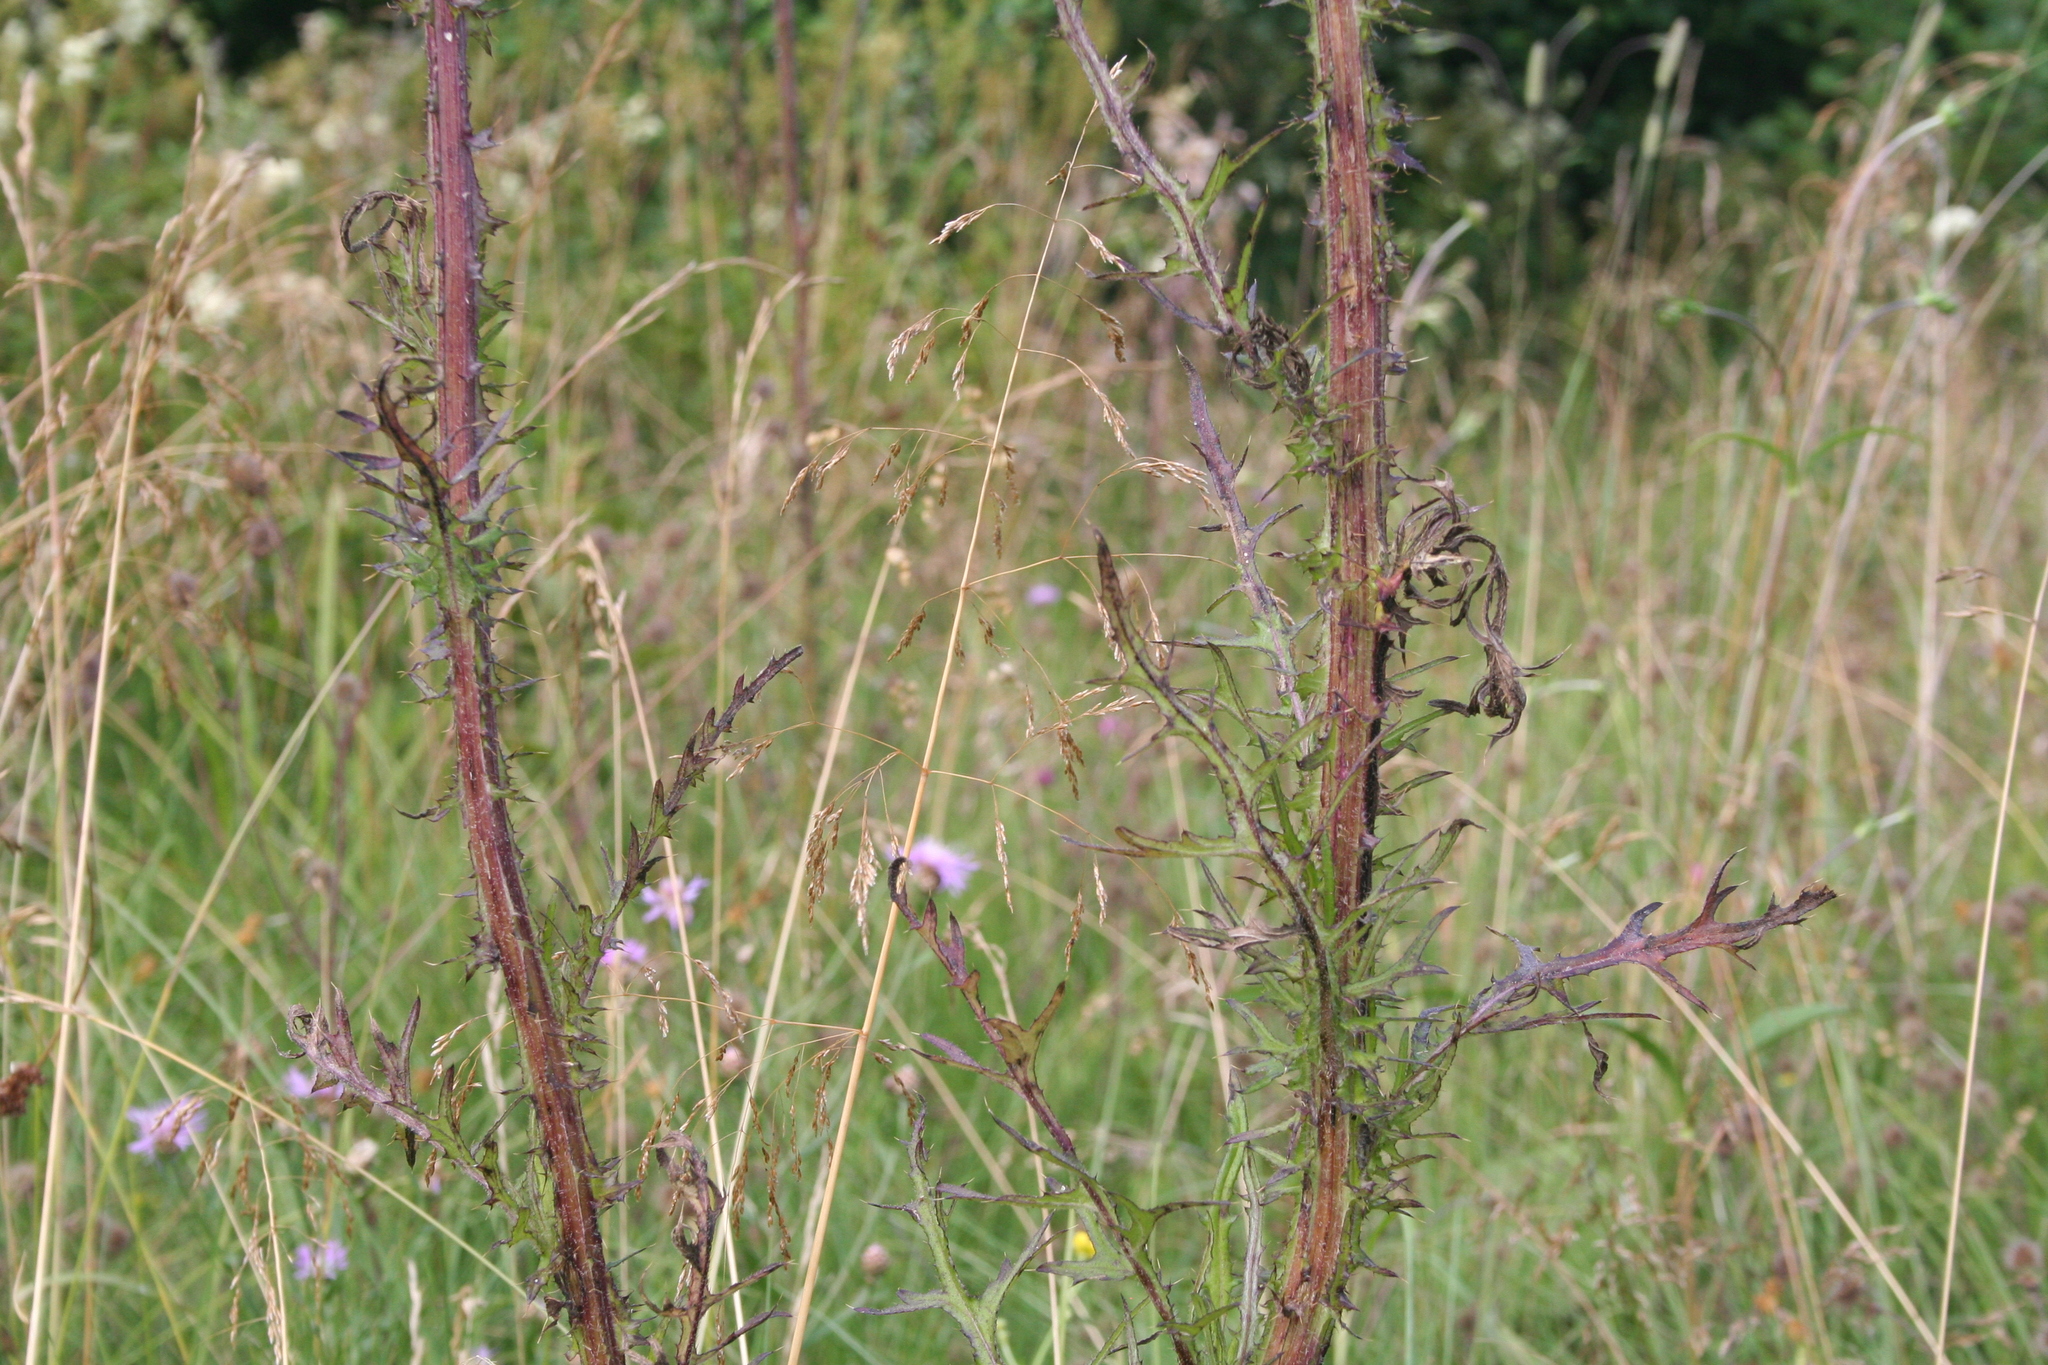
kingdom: Plantae
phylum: Tracheophyta
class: Magnoliopsida
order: Asterales
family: Asteraceae
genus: Cirsium
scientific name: Cirsium palustre
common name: Marsh thistle
